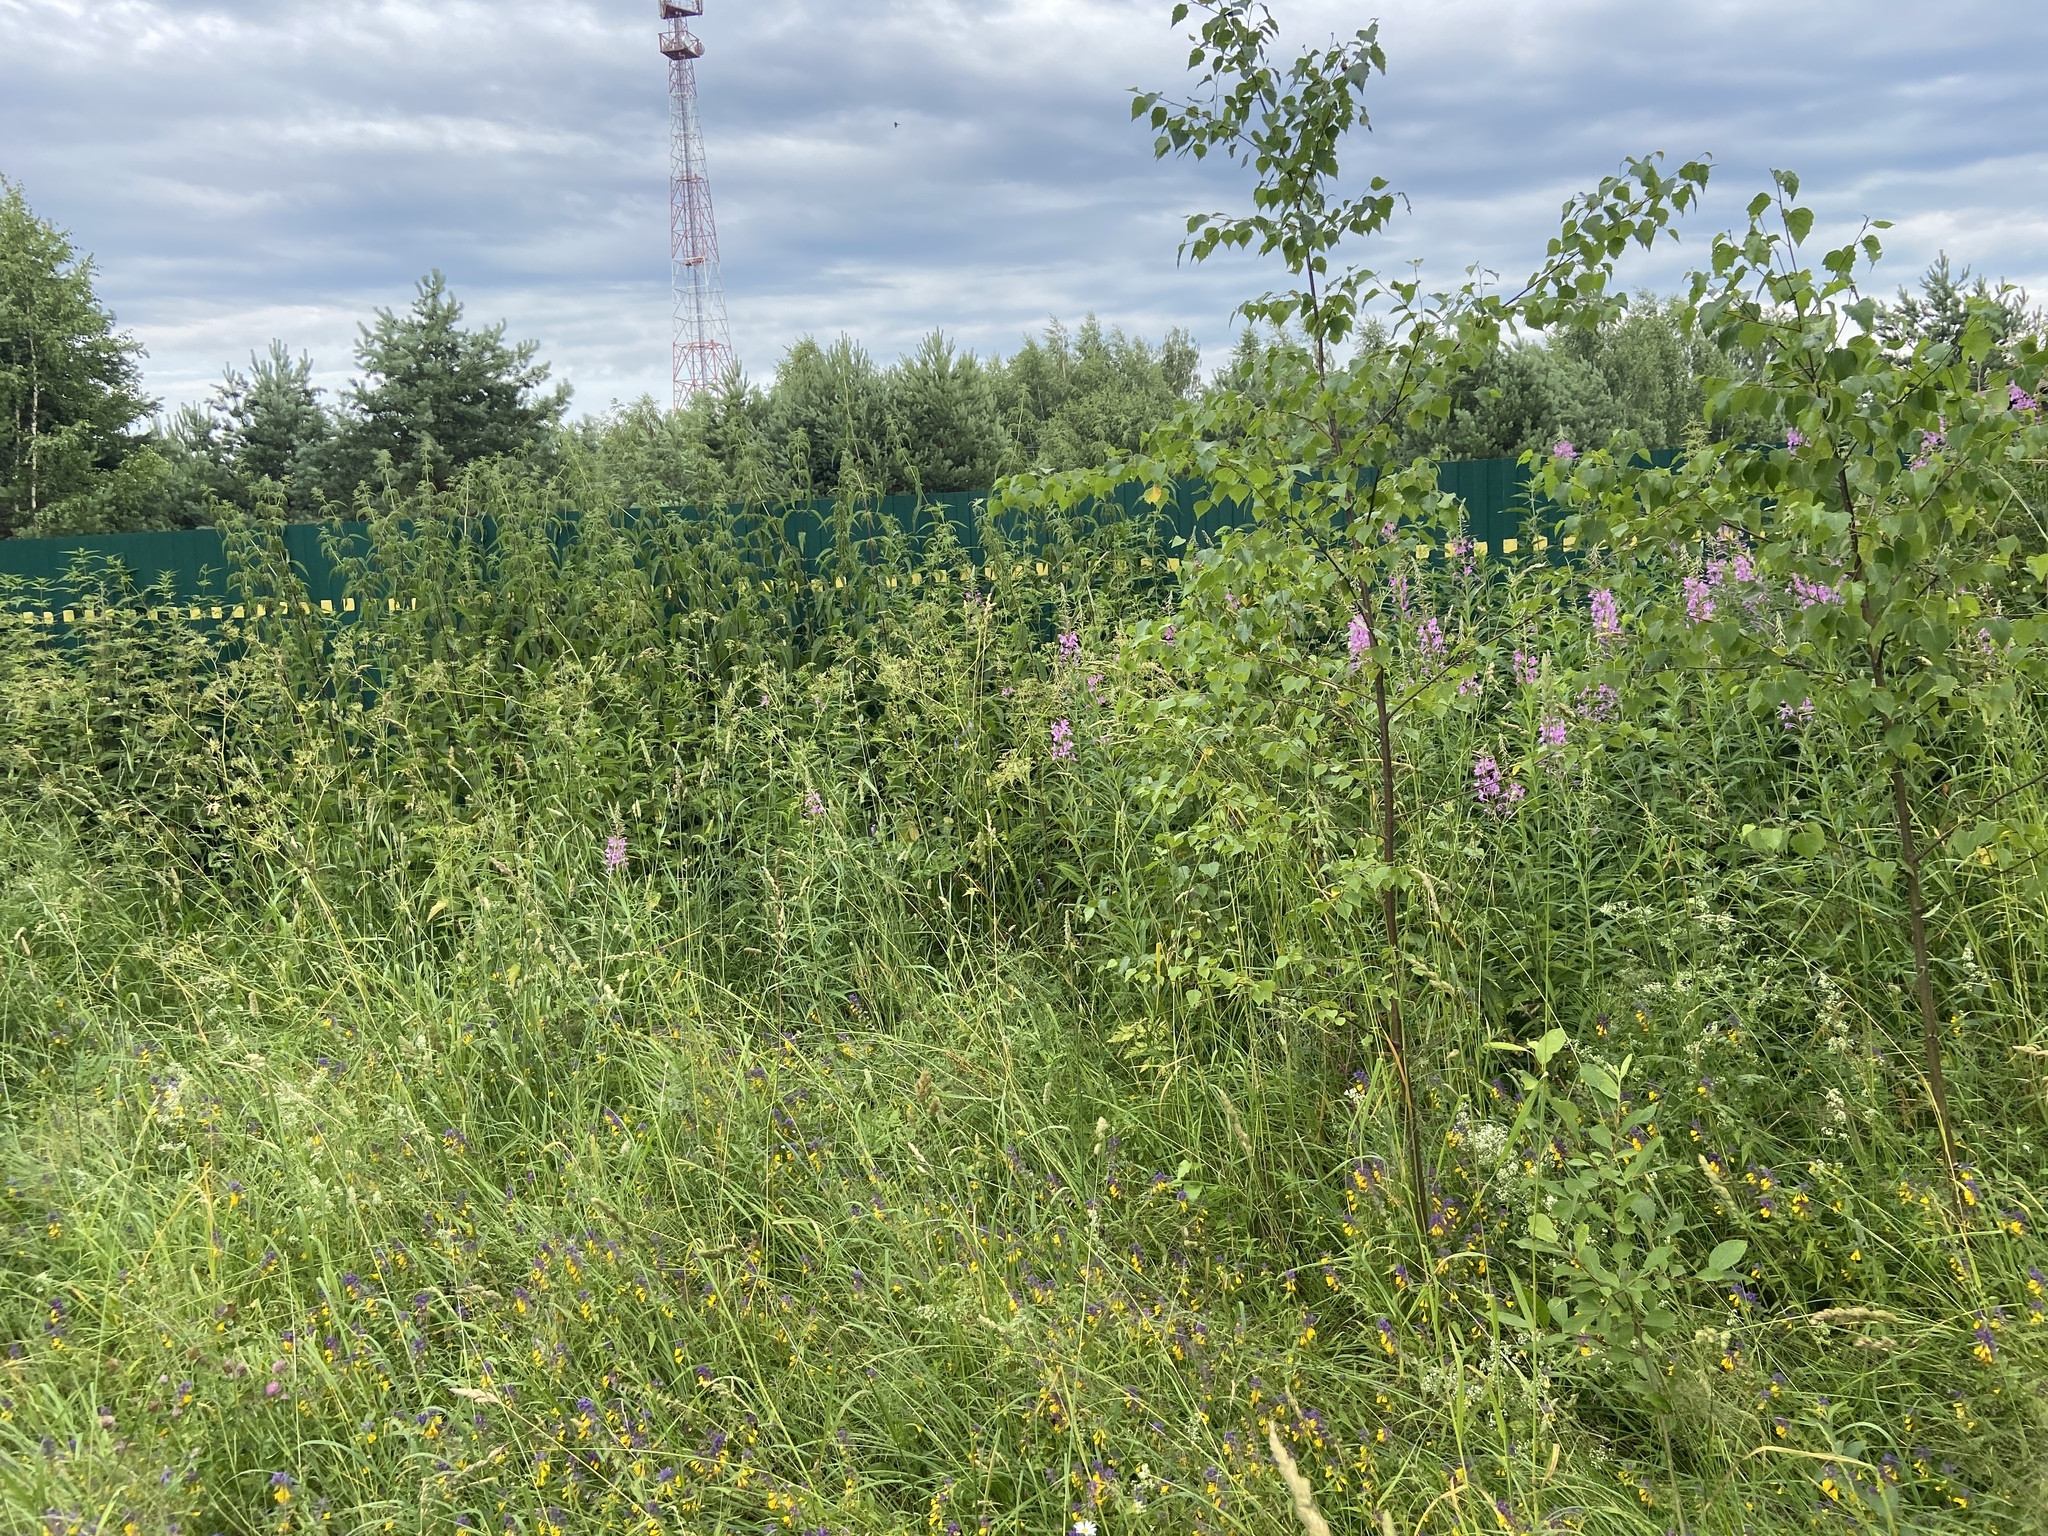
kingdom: Plantae
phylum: Tracheophyta
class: Magnoliopsida
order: Myrtales
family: Onagraceae
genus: Chamaenerion
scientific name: Chamaenerion angustifolium
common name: Fireweed
